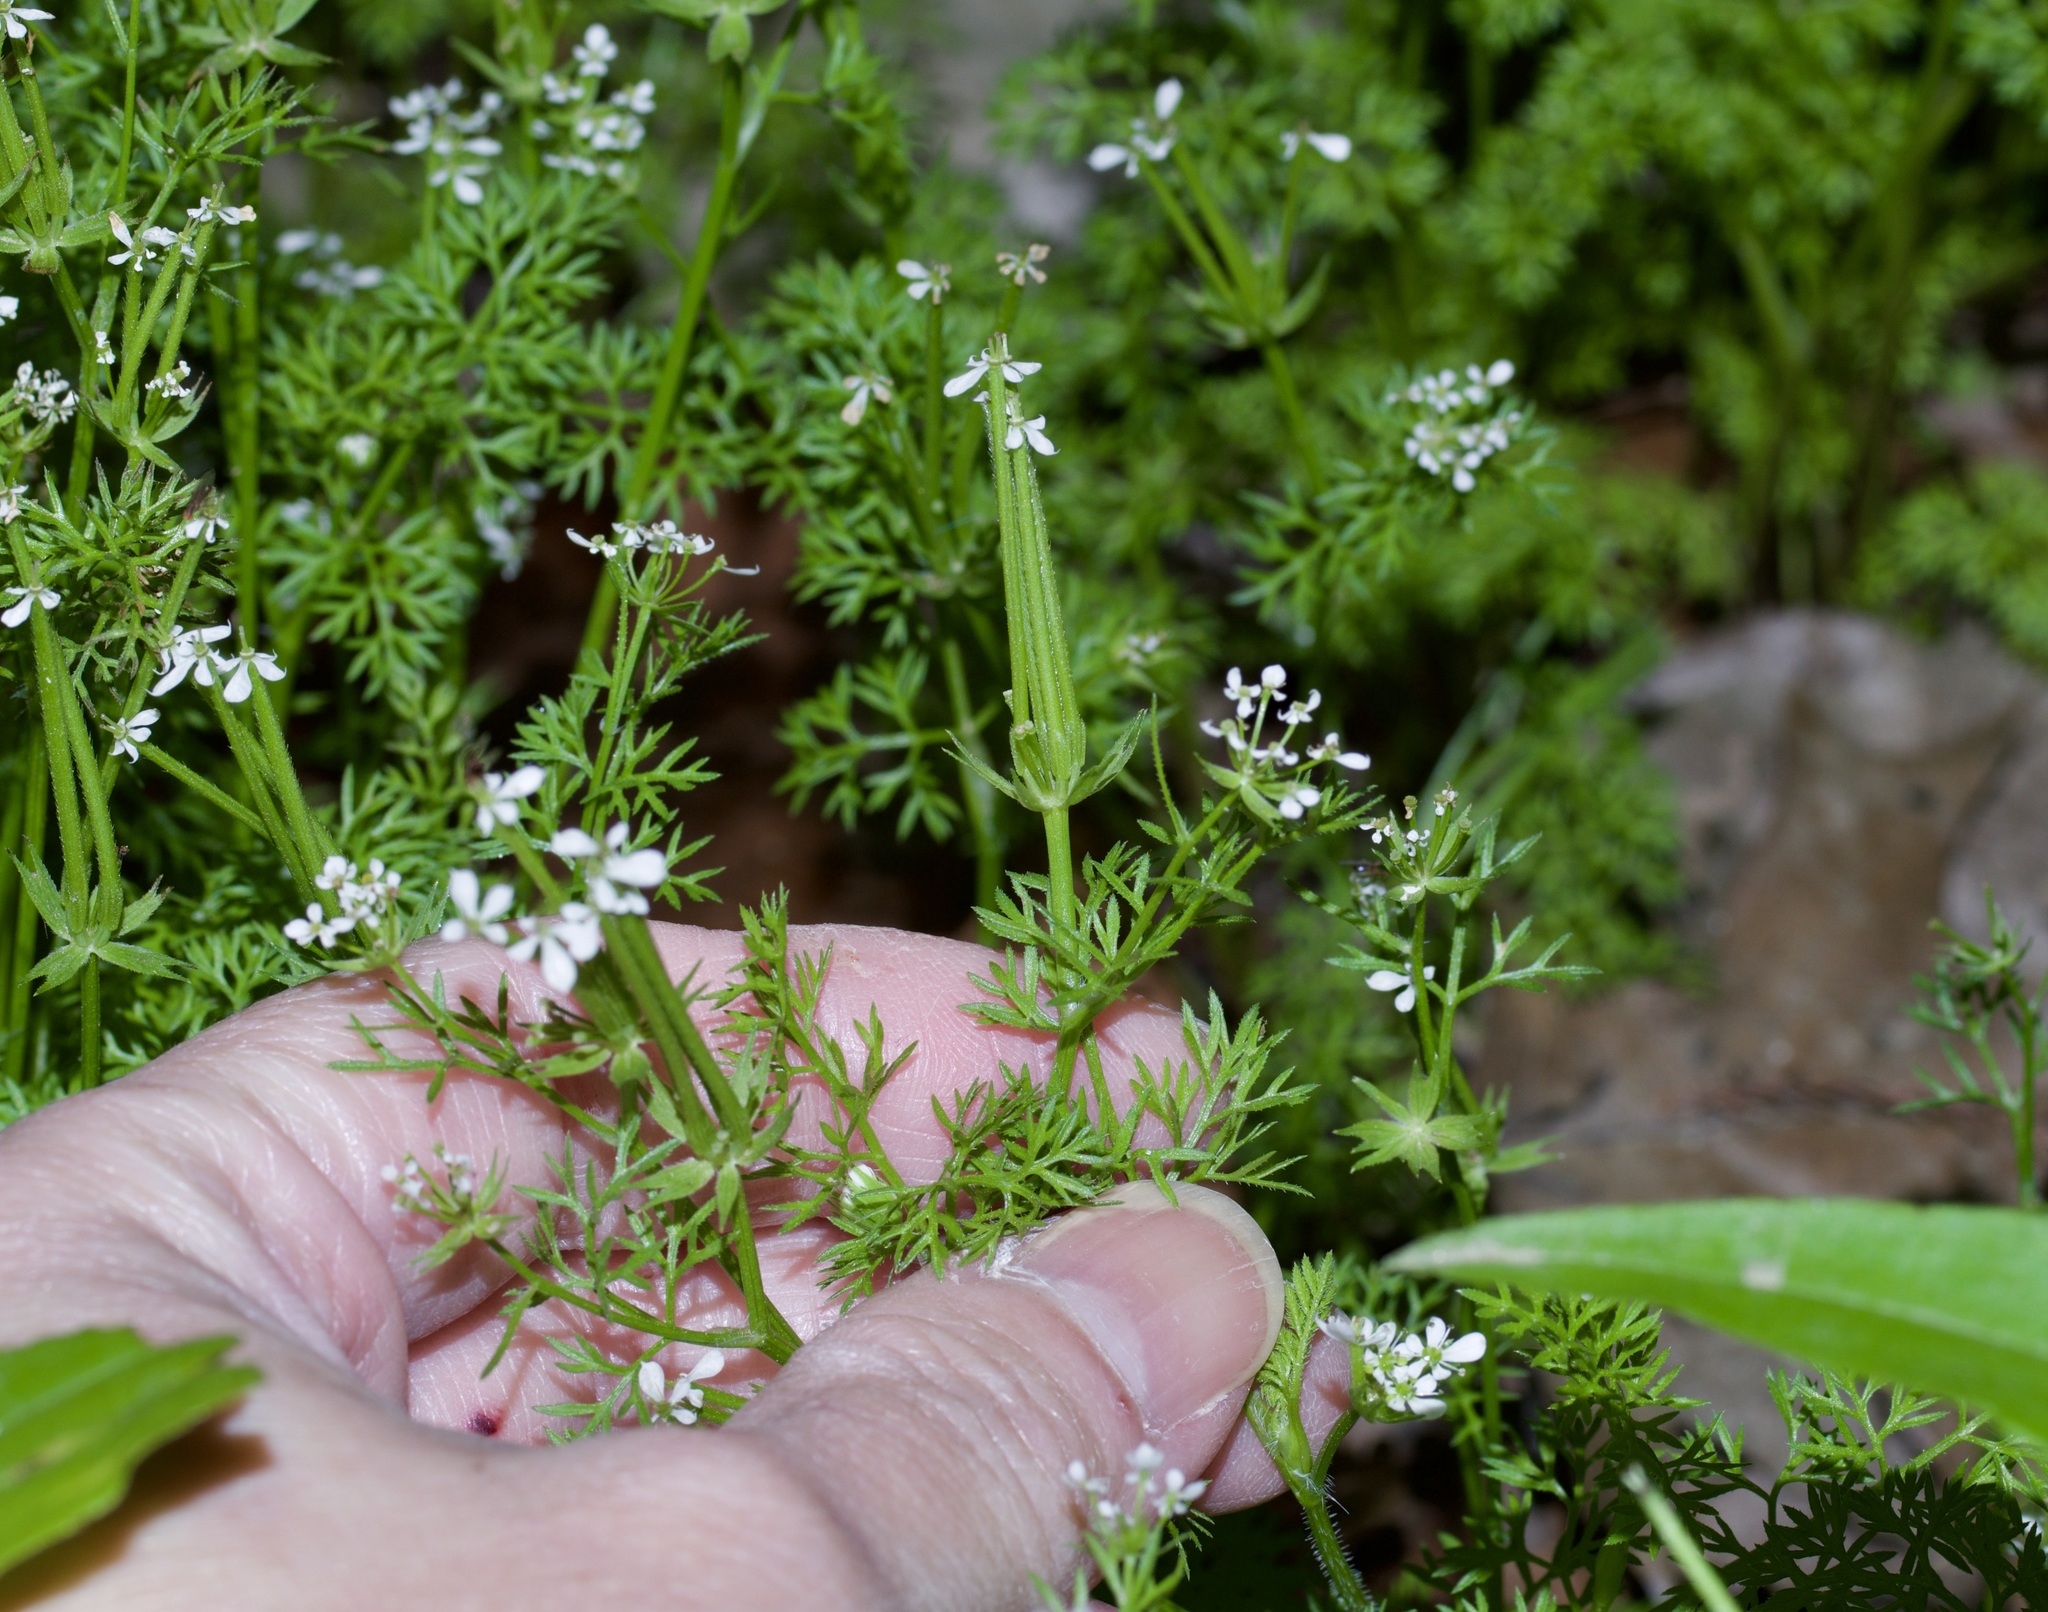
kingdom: Plantae
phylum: Tracheophyta
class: Magnoliopsida
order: Apiales
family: Apiaceae
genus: Scandix
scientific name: Scandix pecten-veneris
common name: Shepherd's-needle
